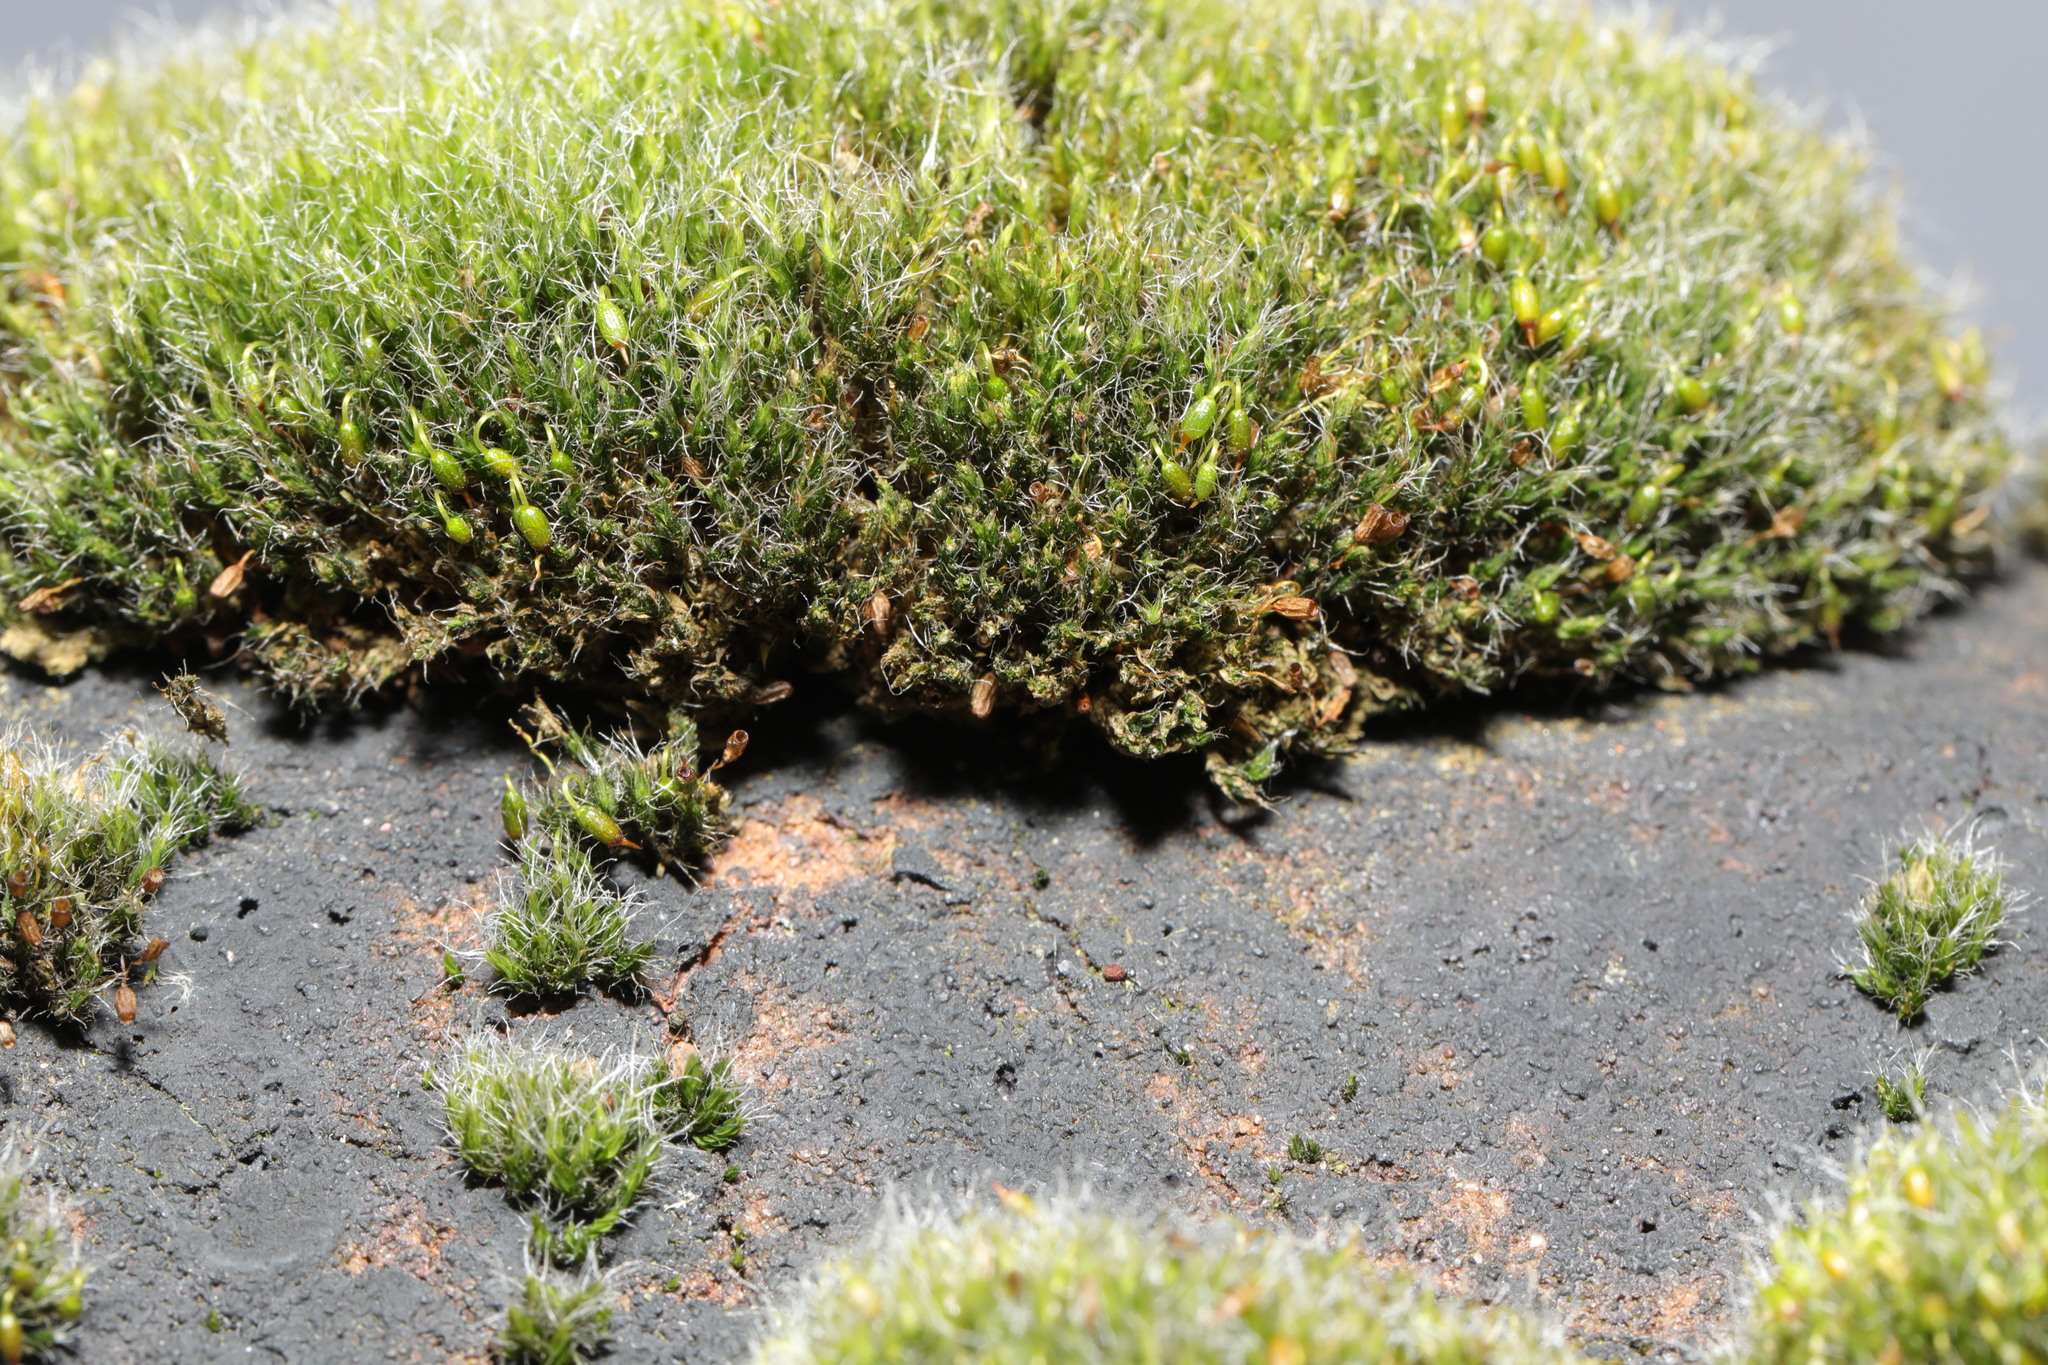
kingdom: Plantae
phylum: Bryophyta
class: Bryopsida
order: Grimmiales
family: Grimmiaceae
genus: Grimmia
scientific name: Grimmia pulvinata
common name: Grey-cushioned grimmia
